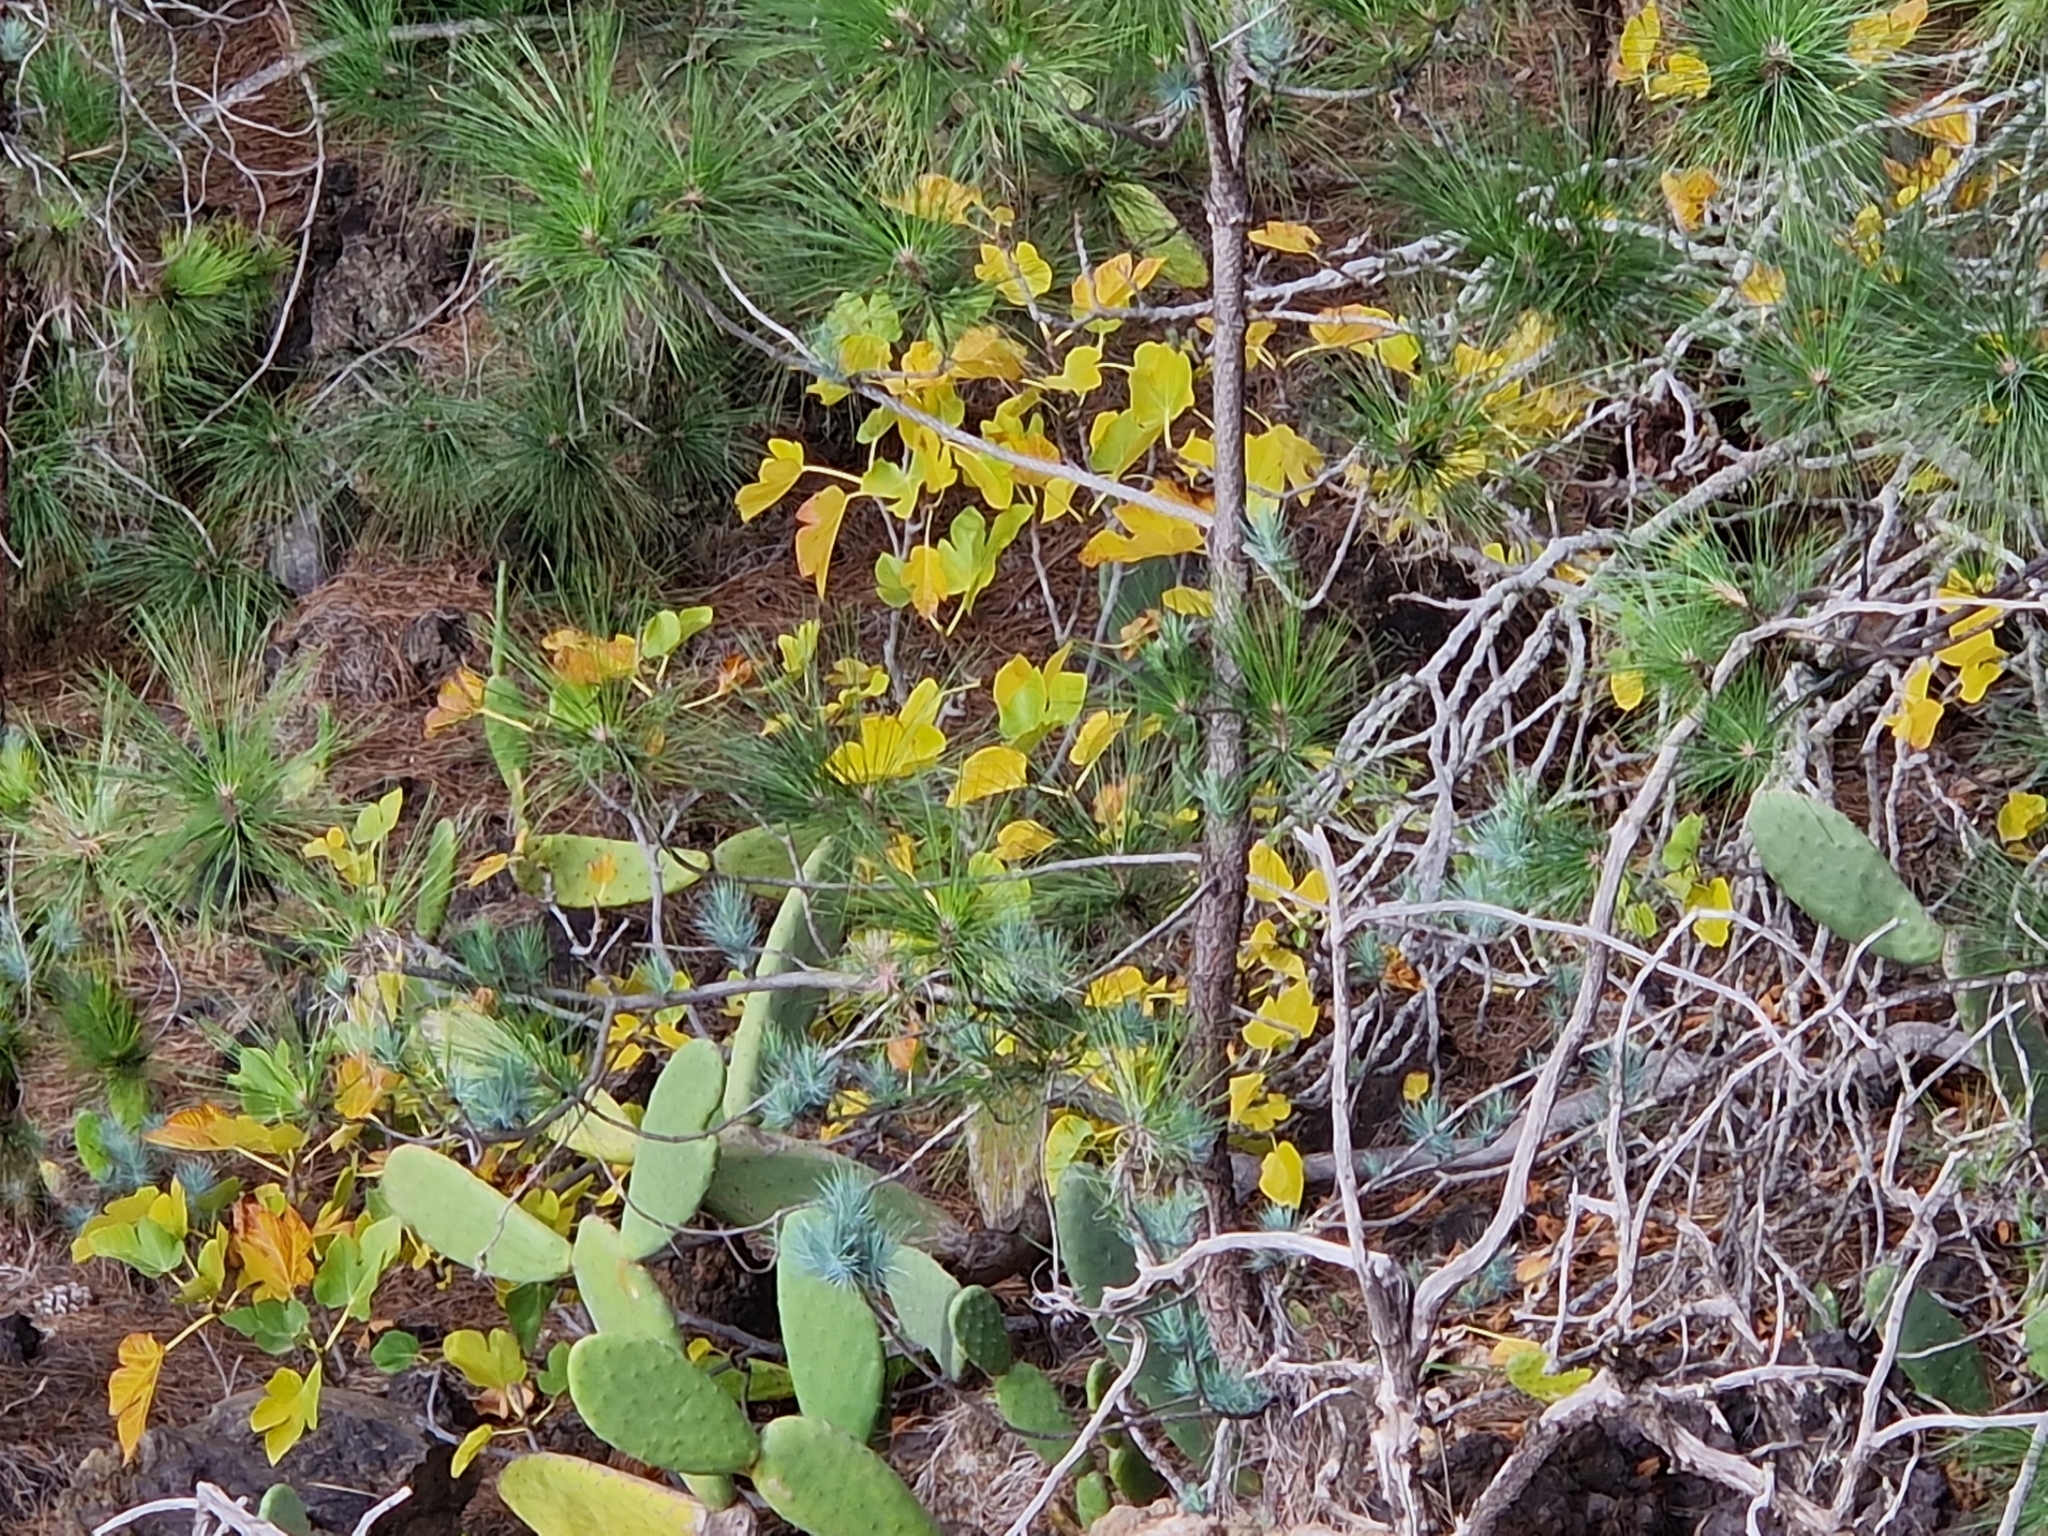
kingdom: Plantae
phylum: Tracheophyta
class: Magnoliopsida
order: Rosales
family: Moraceae
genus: Ficus
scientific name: Ficus carica
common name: Fig
